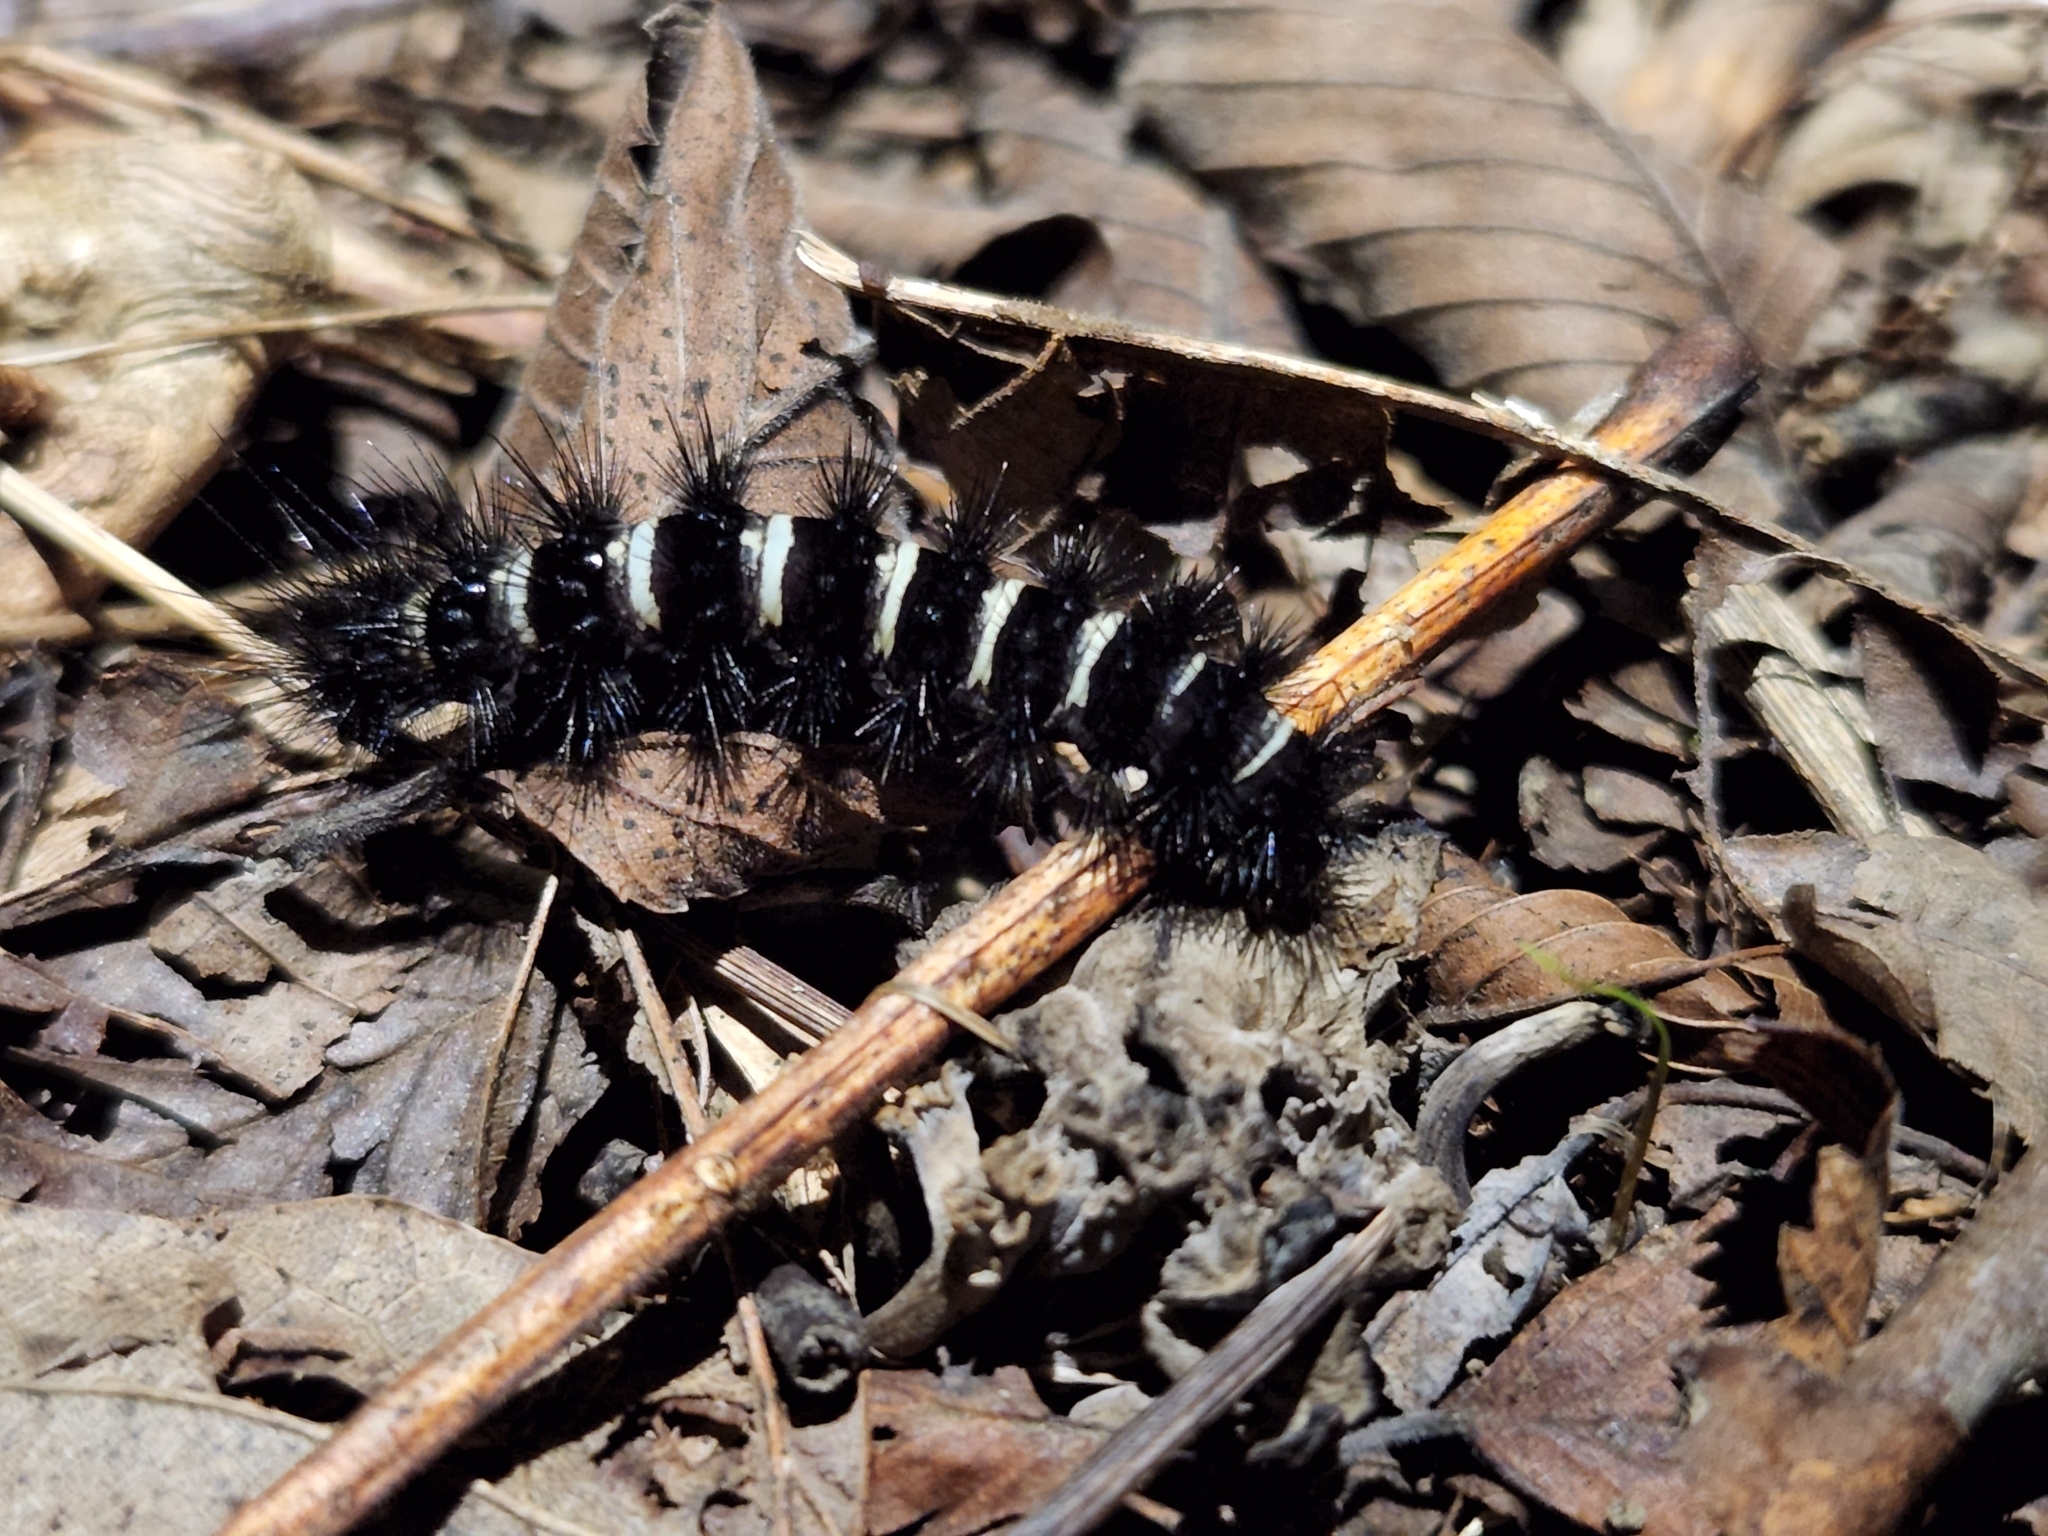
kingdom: Animalia
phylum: Arthropoda
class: Insecta
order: Lepidoptera
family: Erebidae
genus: Spilosoma
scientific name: Spilosoma congrua
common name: Agreeable tiger moth
